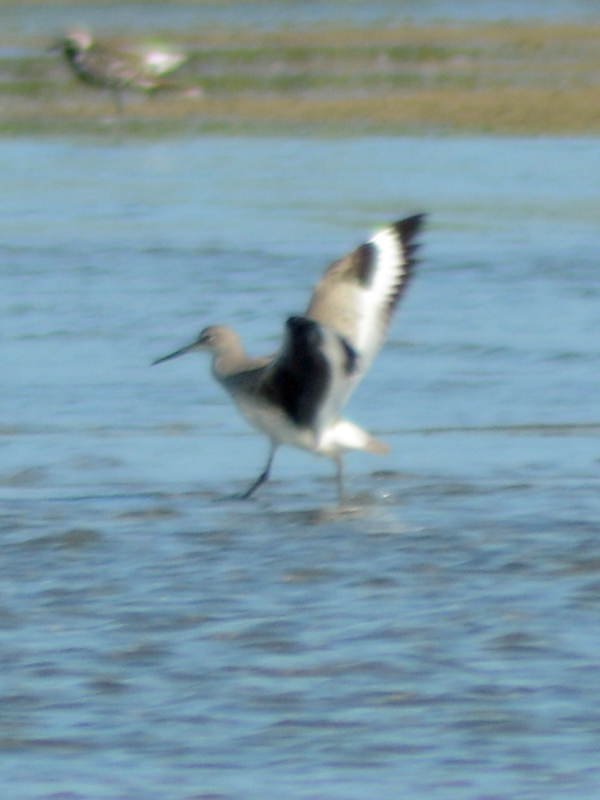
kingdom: Animalia
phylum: Chordata
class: Aves
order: Charadriiformes
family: Scolopacidae
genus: Tringa
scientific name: Tringa semipalmata
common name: Willet
